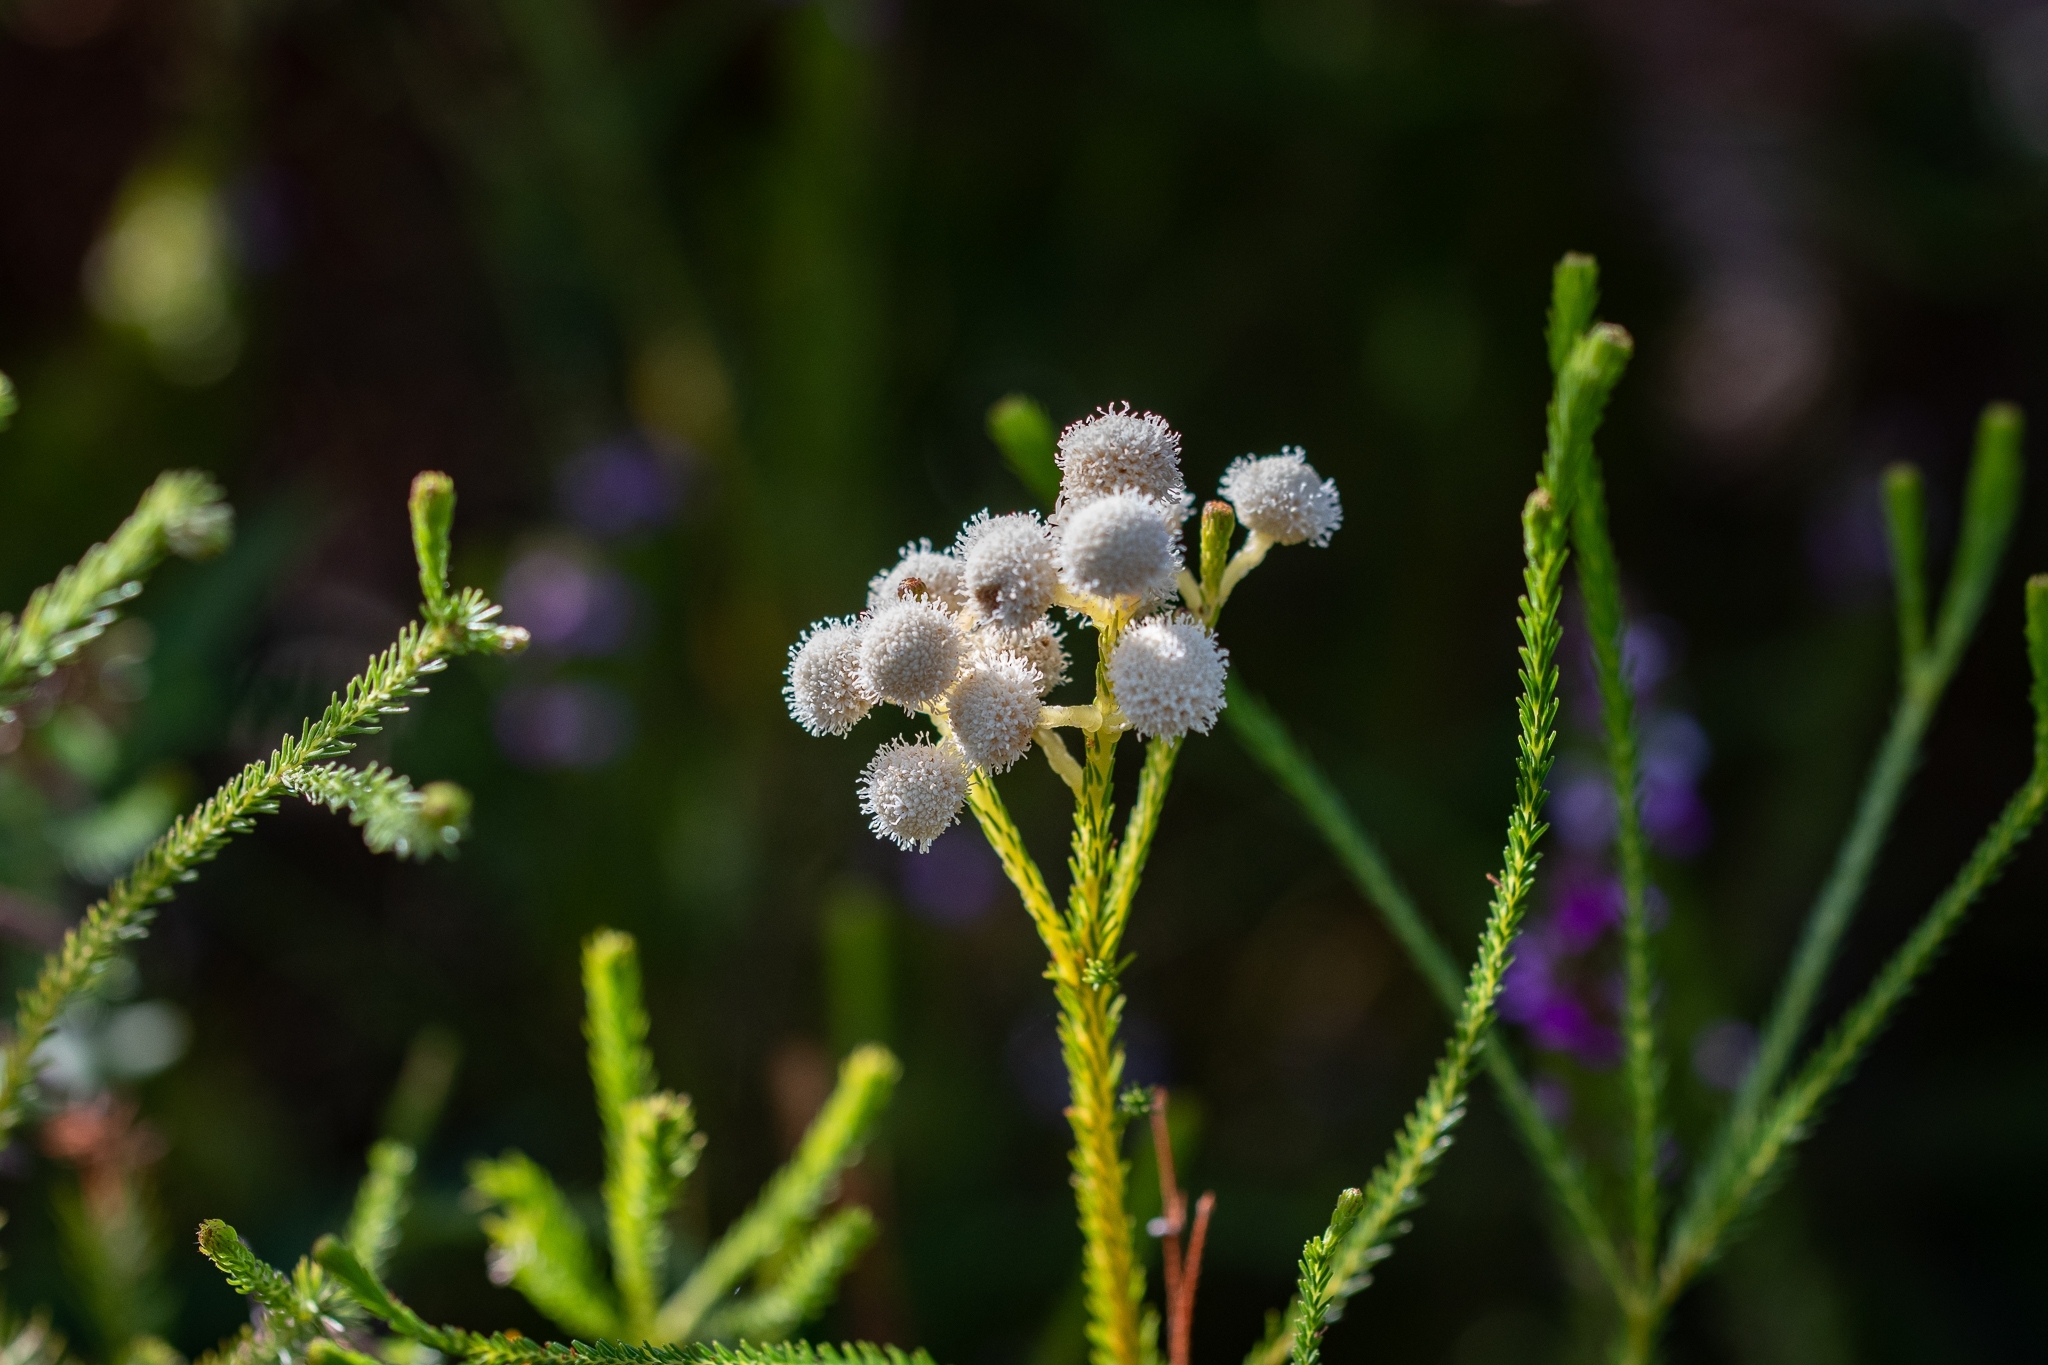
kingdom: Plantae
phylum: Tracheophyta
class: Magnoliopsida
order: Bruniales
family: Bruniaceae
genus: Berzelia
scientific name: Berzelia lanuginosa
